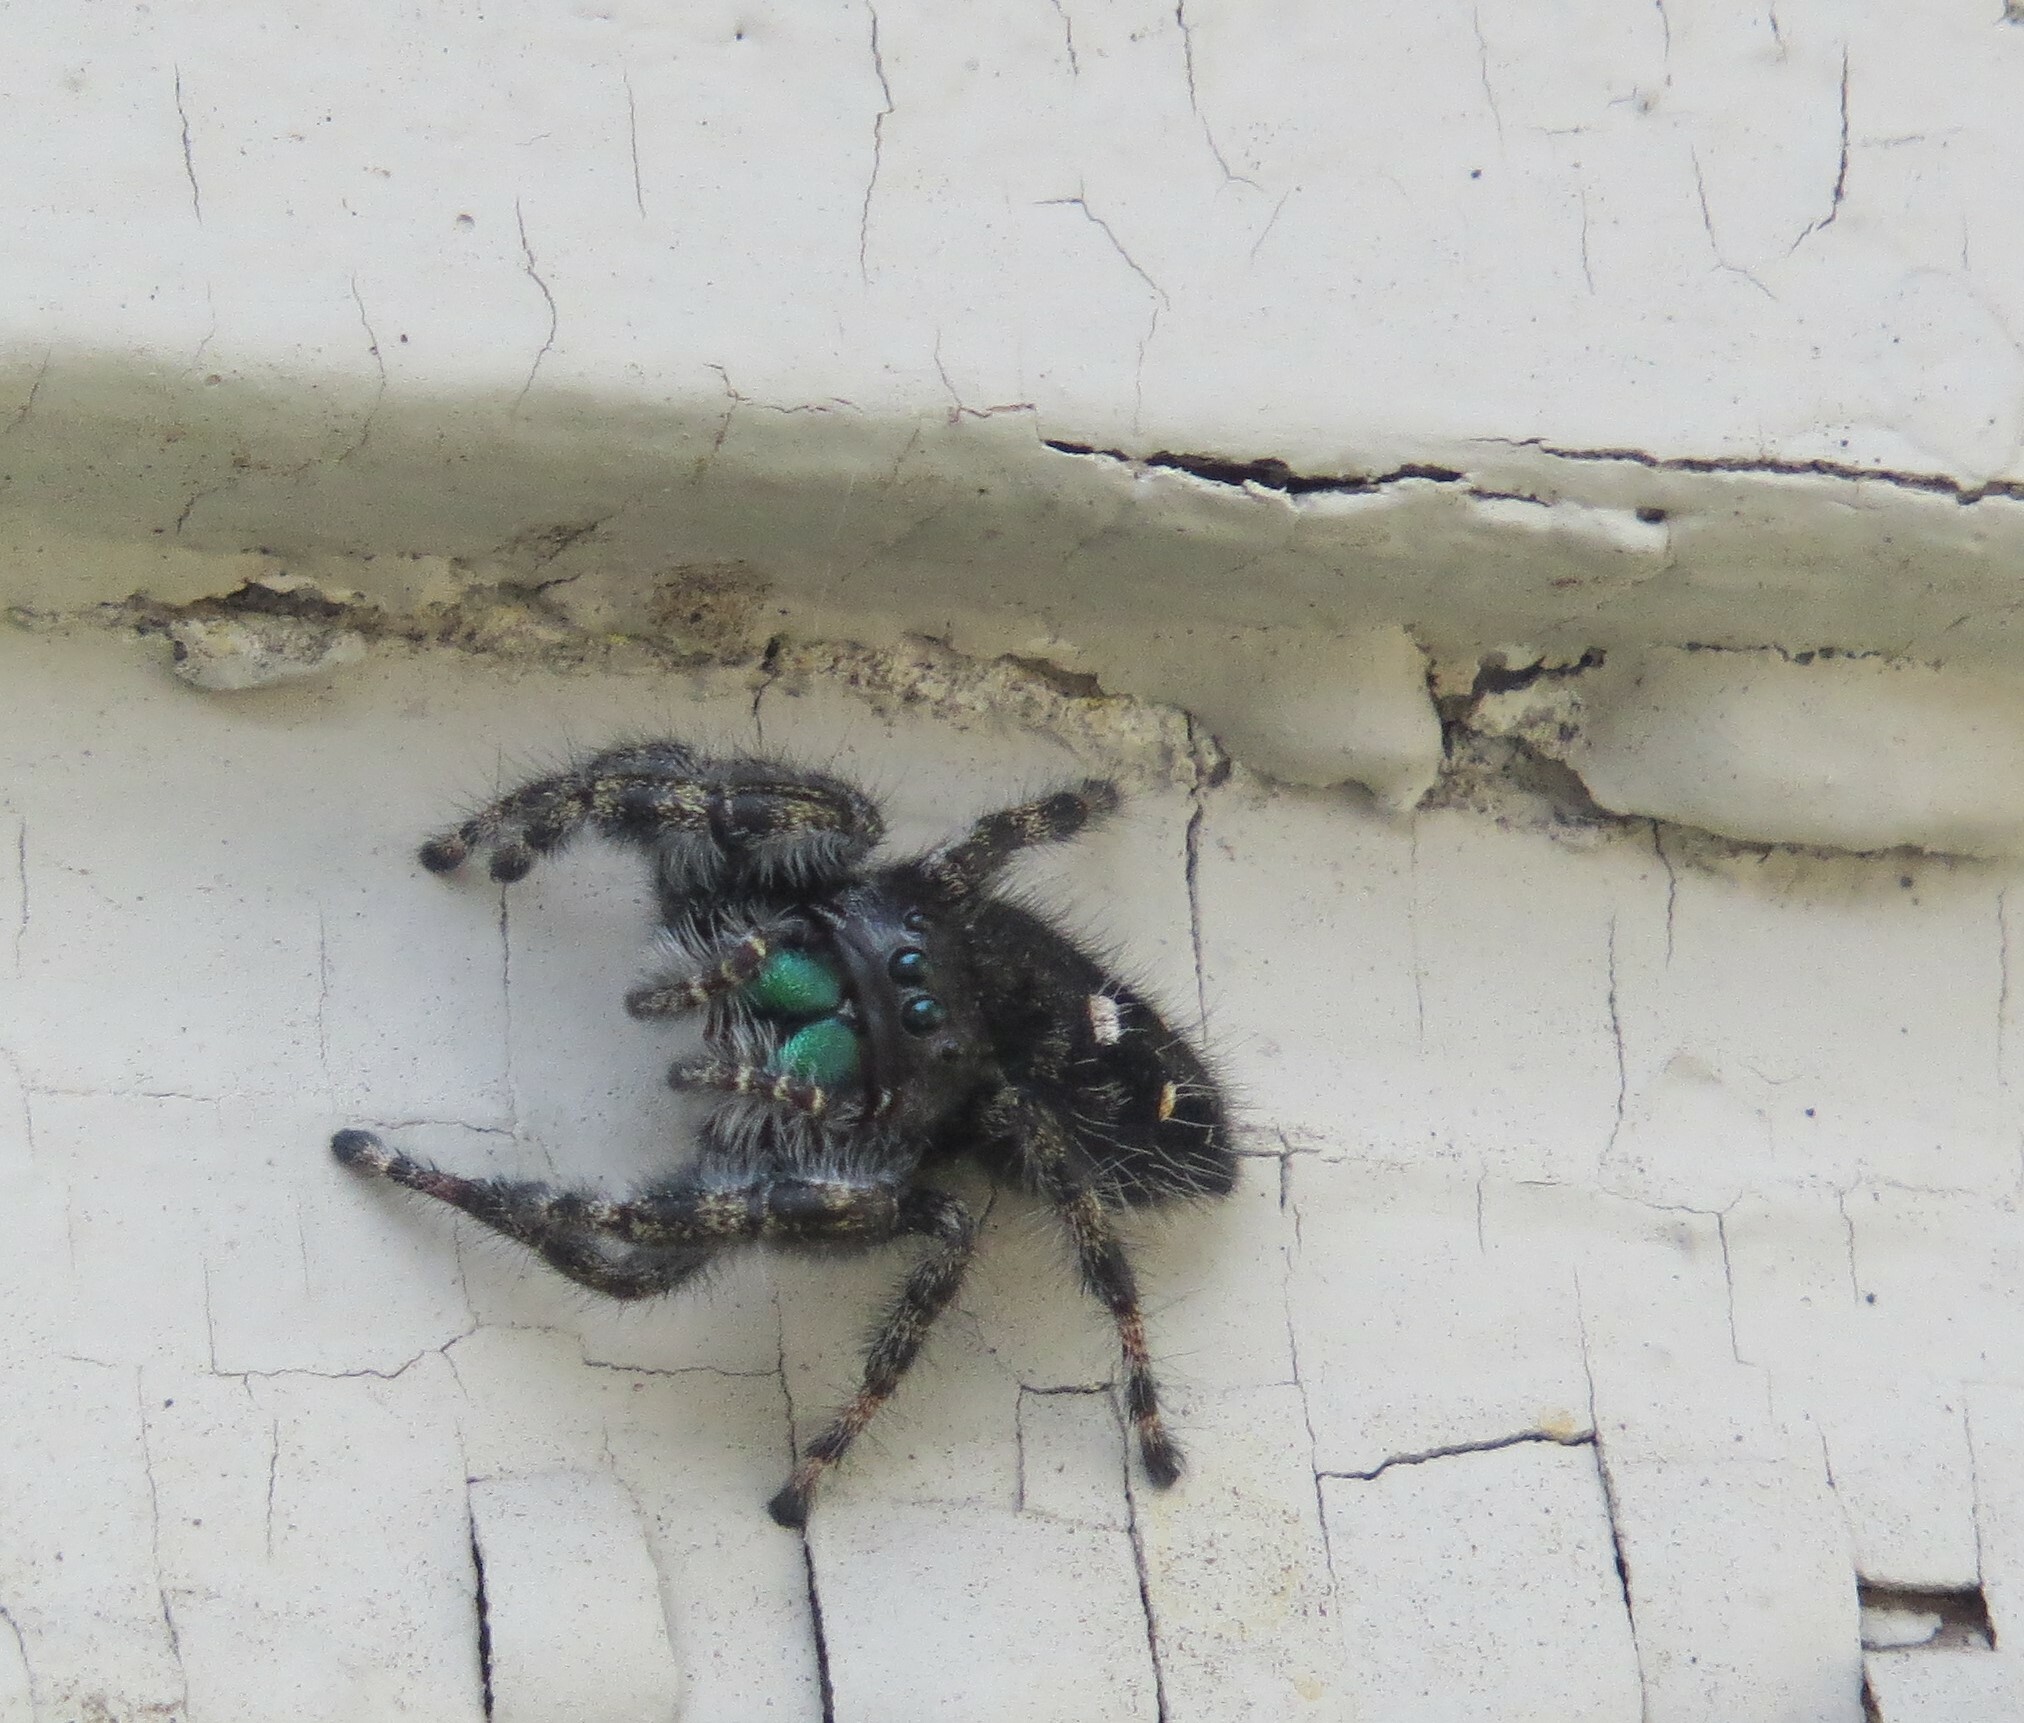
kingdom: Animalia
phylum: Arthropoda
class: Arachnida
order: Araneae
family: Salticidae
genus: Phidippus
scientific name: Phidippus audax
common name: Bold jumper
